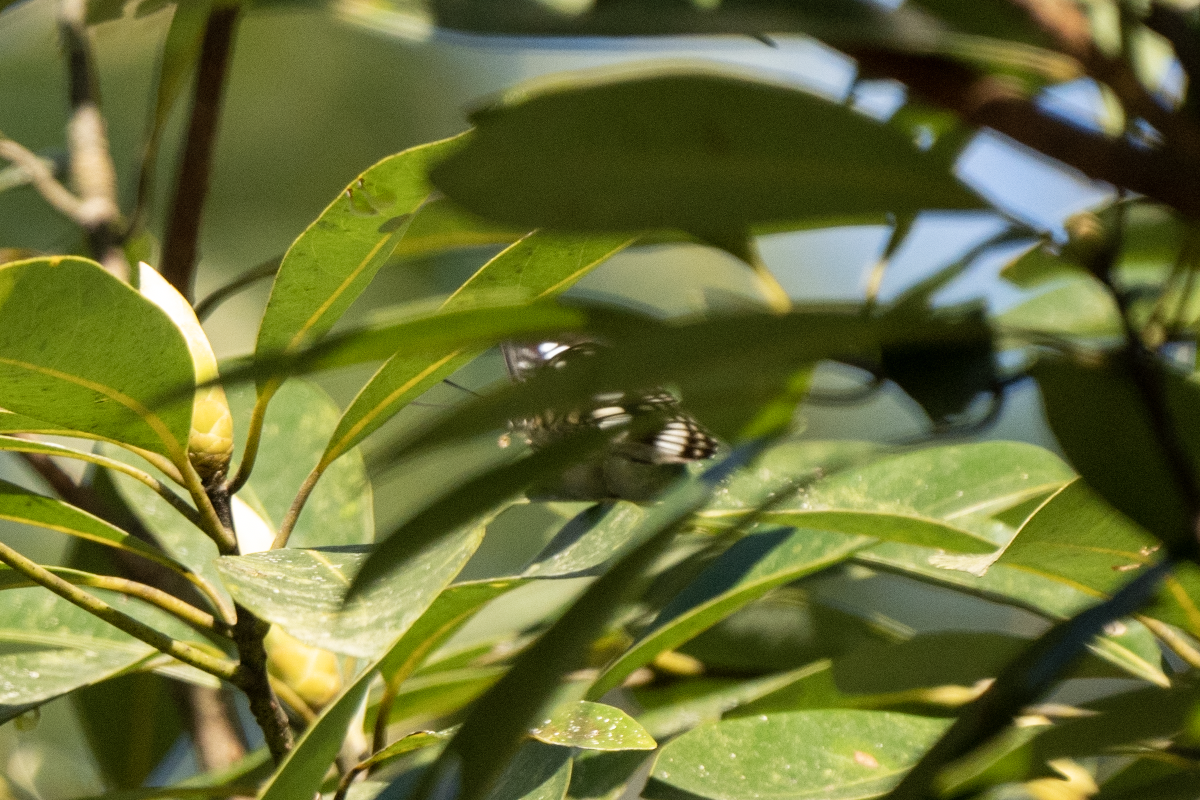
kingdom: Animalia
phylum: Arthropoda
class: Insecta
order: Lepidoptera
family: Nymphalidae
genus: Parathyma
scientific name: Parathyma ranga
